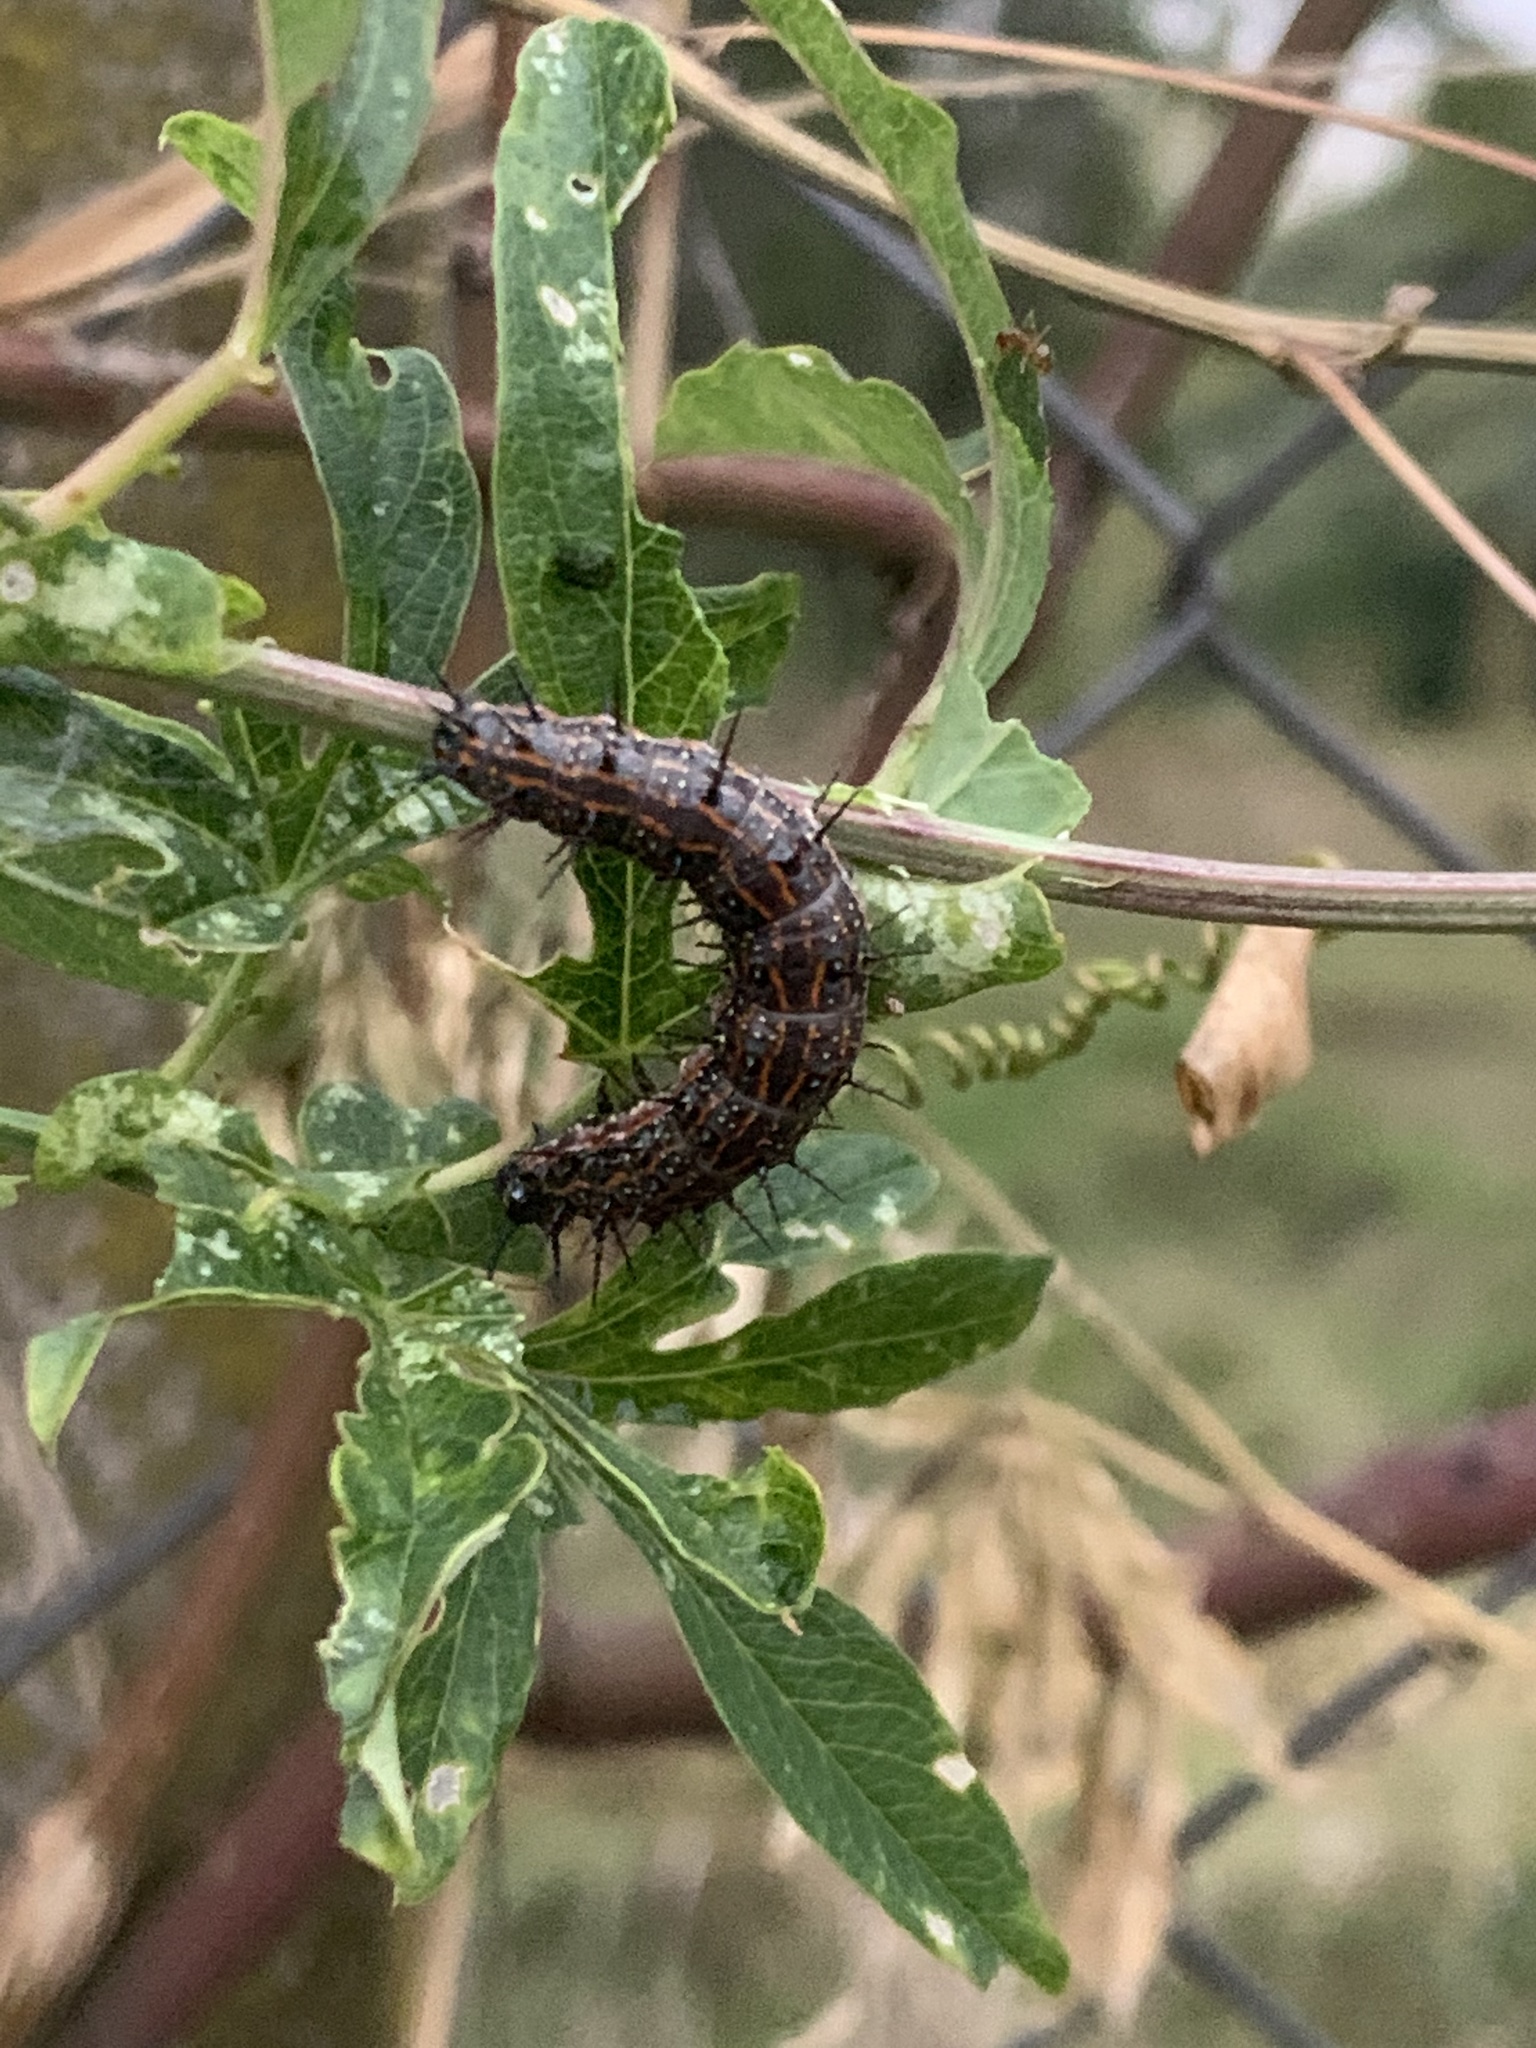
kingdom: Animalia
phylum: Arthropoda
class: Insecta
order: Lepidoptera
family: Nymphalidae
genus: Dione
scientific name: Dione vanillae
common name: Gulf fritillary
